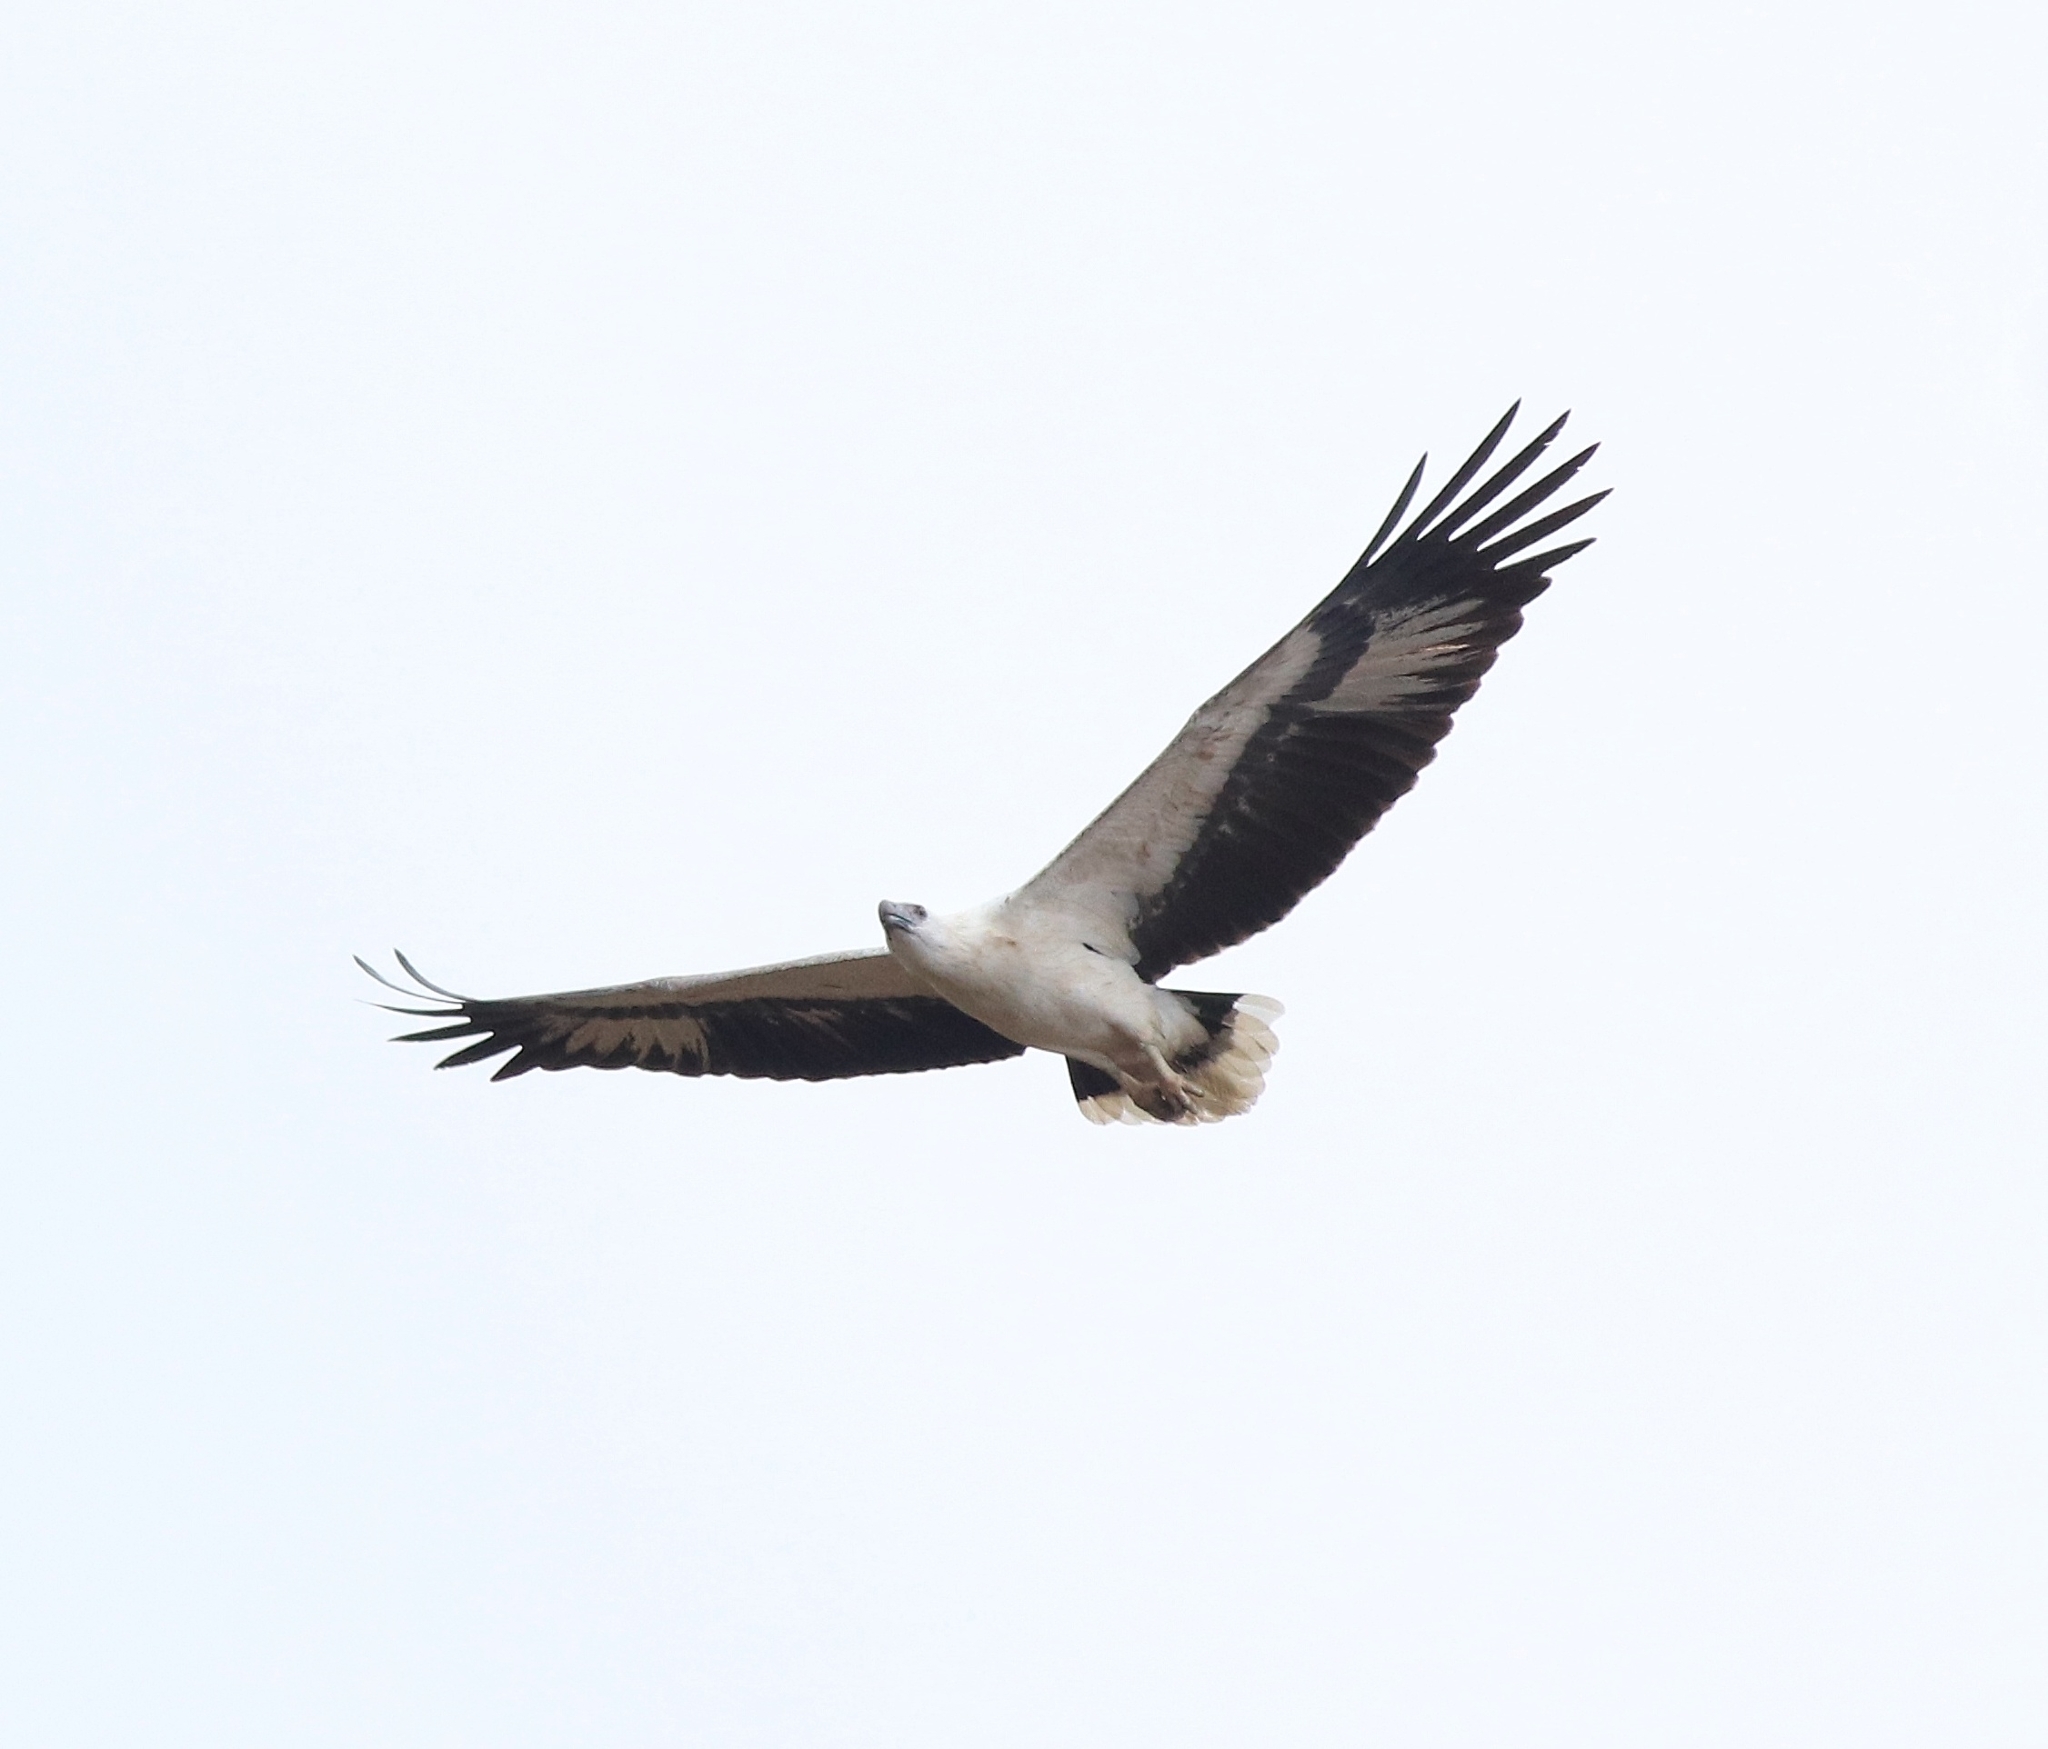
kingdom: Animalia
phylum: Chordata
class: Aves
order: Accipitriformes
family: Accipitridae
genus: Haliaeetus
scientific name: Haliaeetus leucogaster
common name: White-bellied sea eagle
